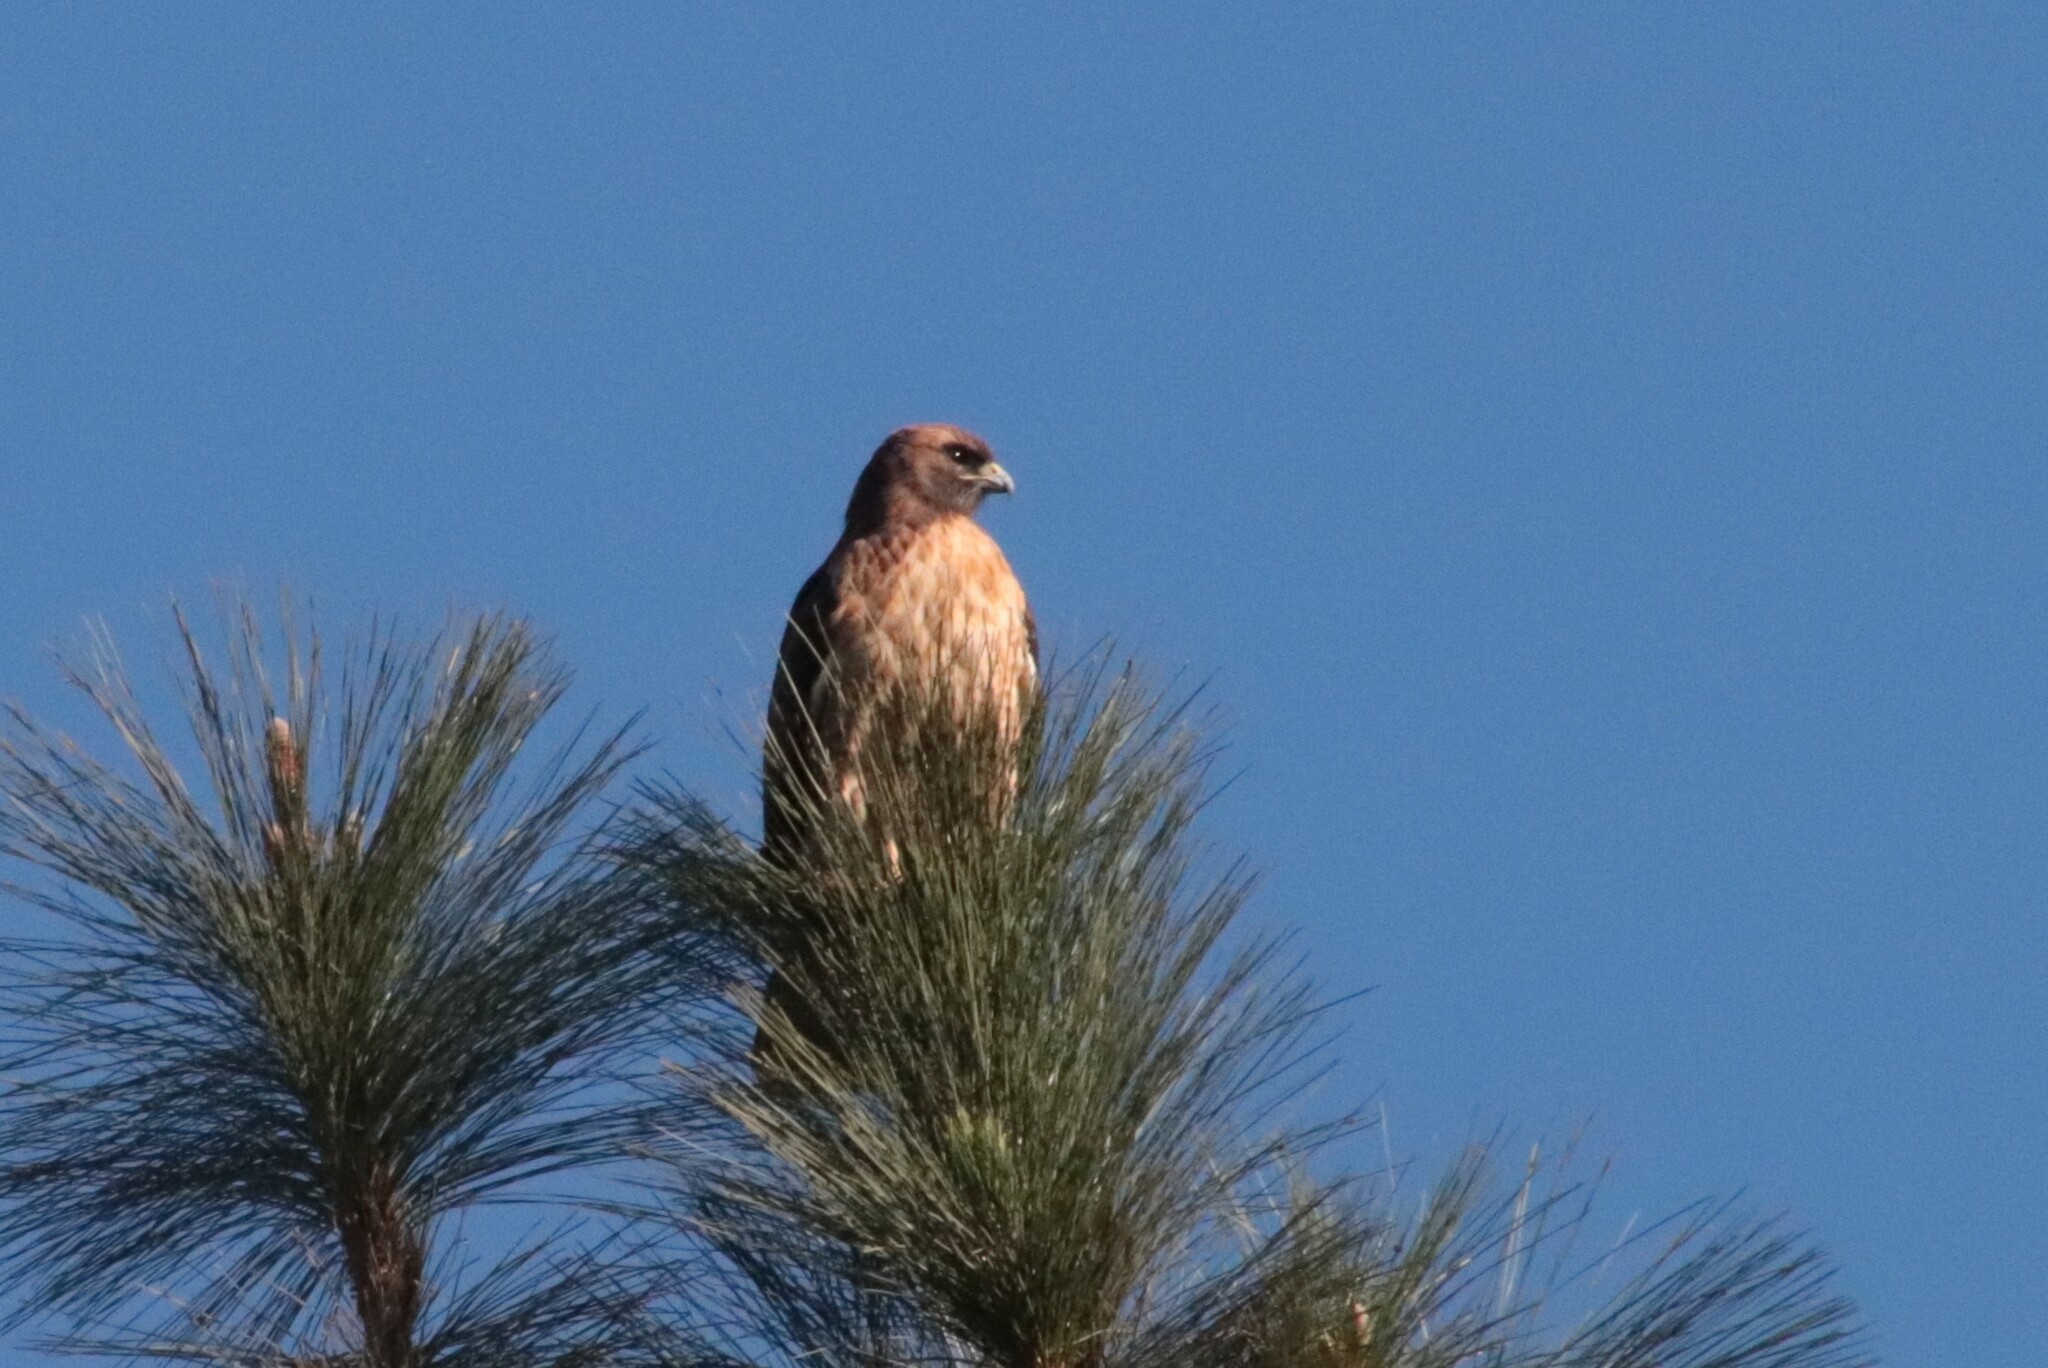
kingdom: Animalia
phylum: Chordata
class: Aves
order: Accipitriformes
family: Accipitridae
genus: Buteo
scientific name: Buteo jamaicensis
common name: Red-tailed hawk
